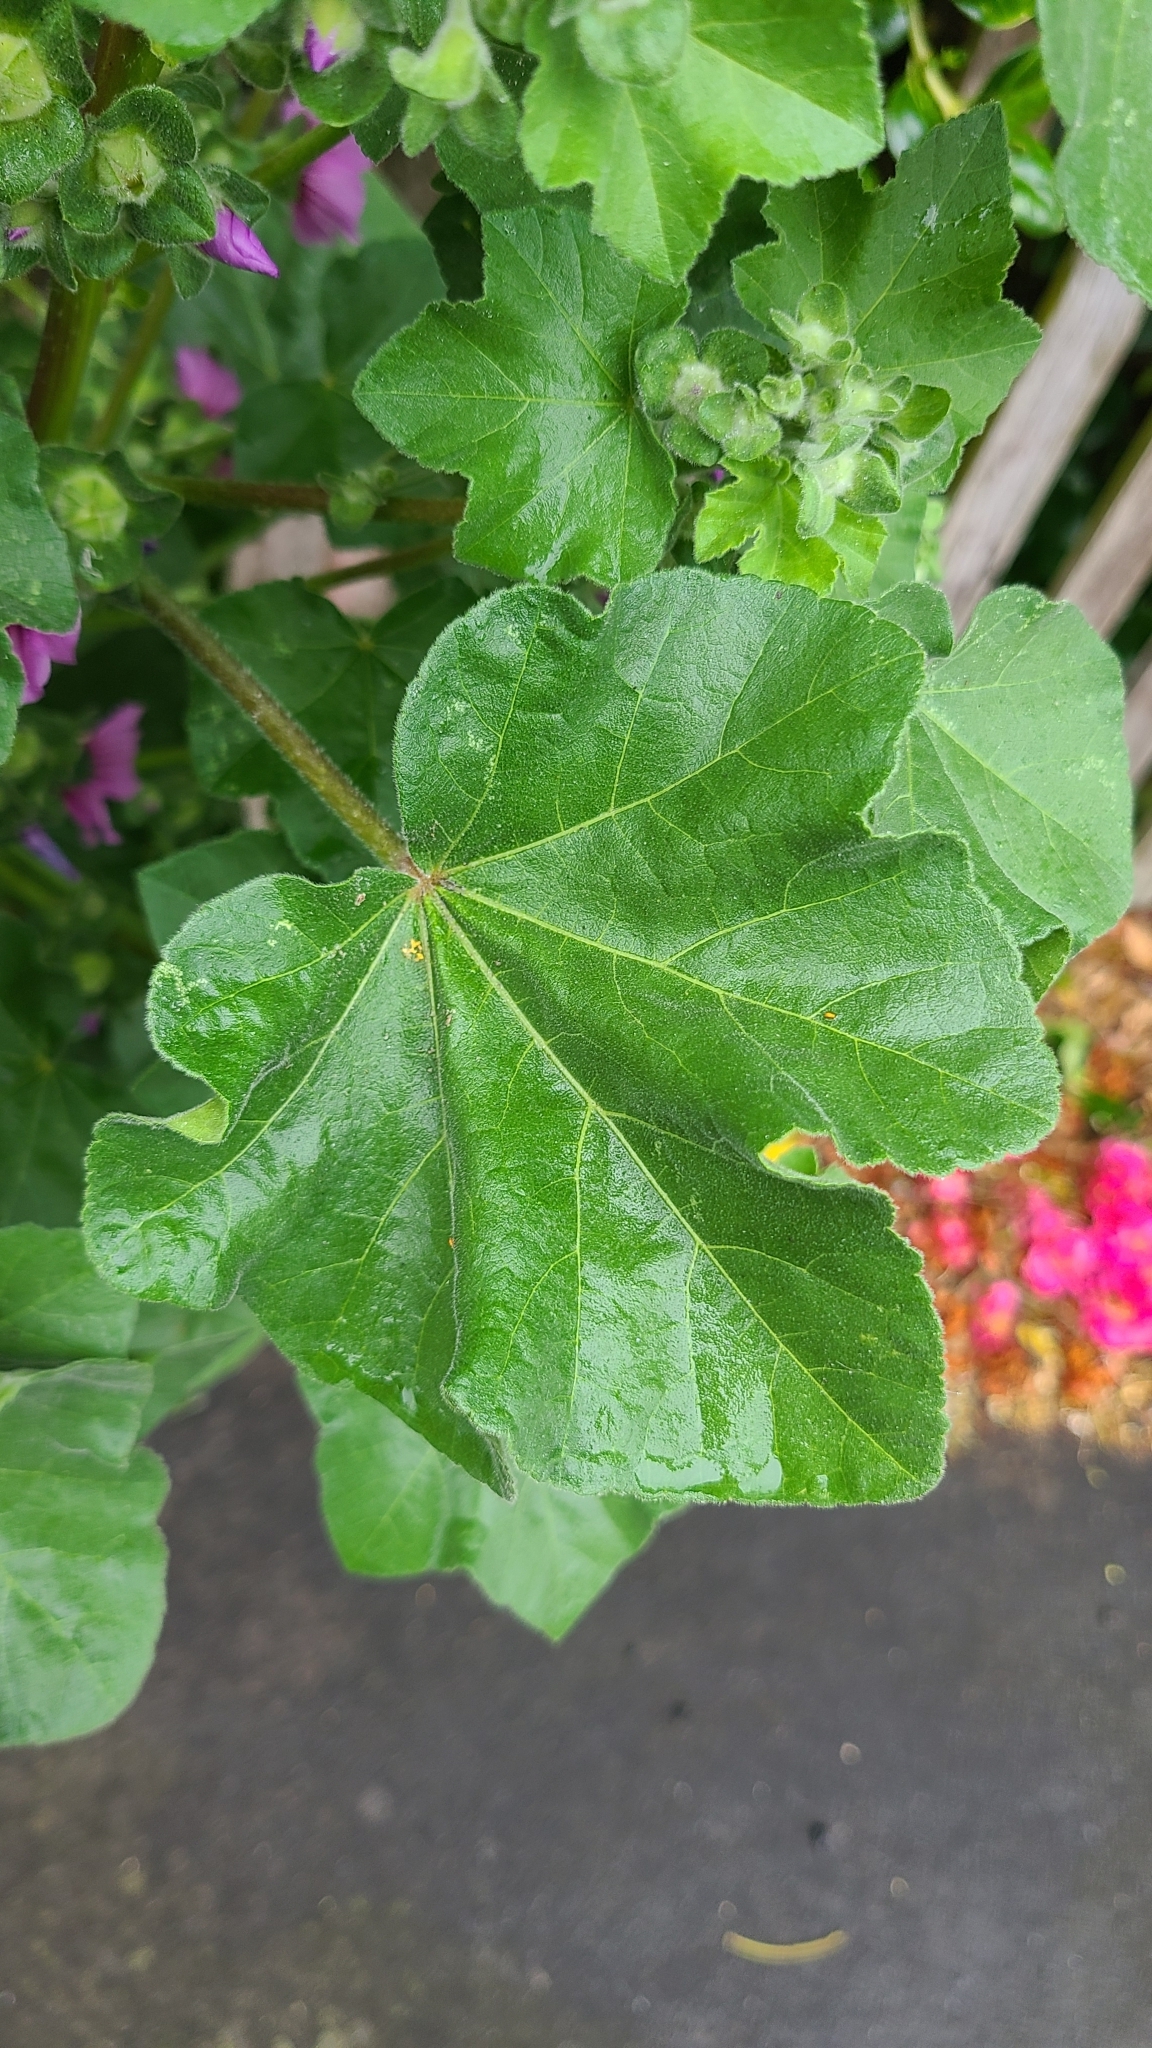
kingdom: Plantae
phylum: Tracheophyta
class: Magnoliopsida
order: Malvales
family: Malvaceae
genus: Malva
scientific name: Malva arborea
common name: Tree mallow
